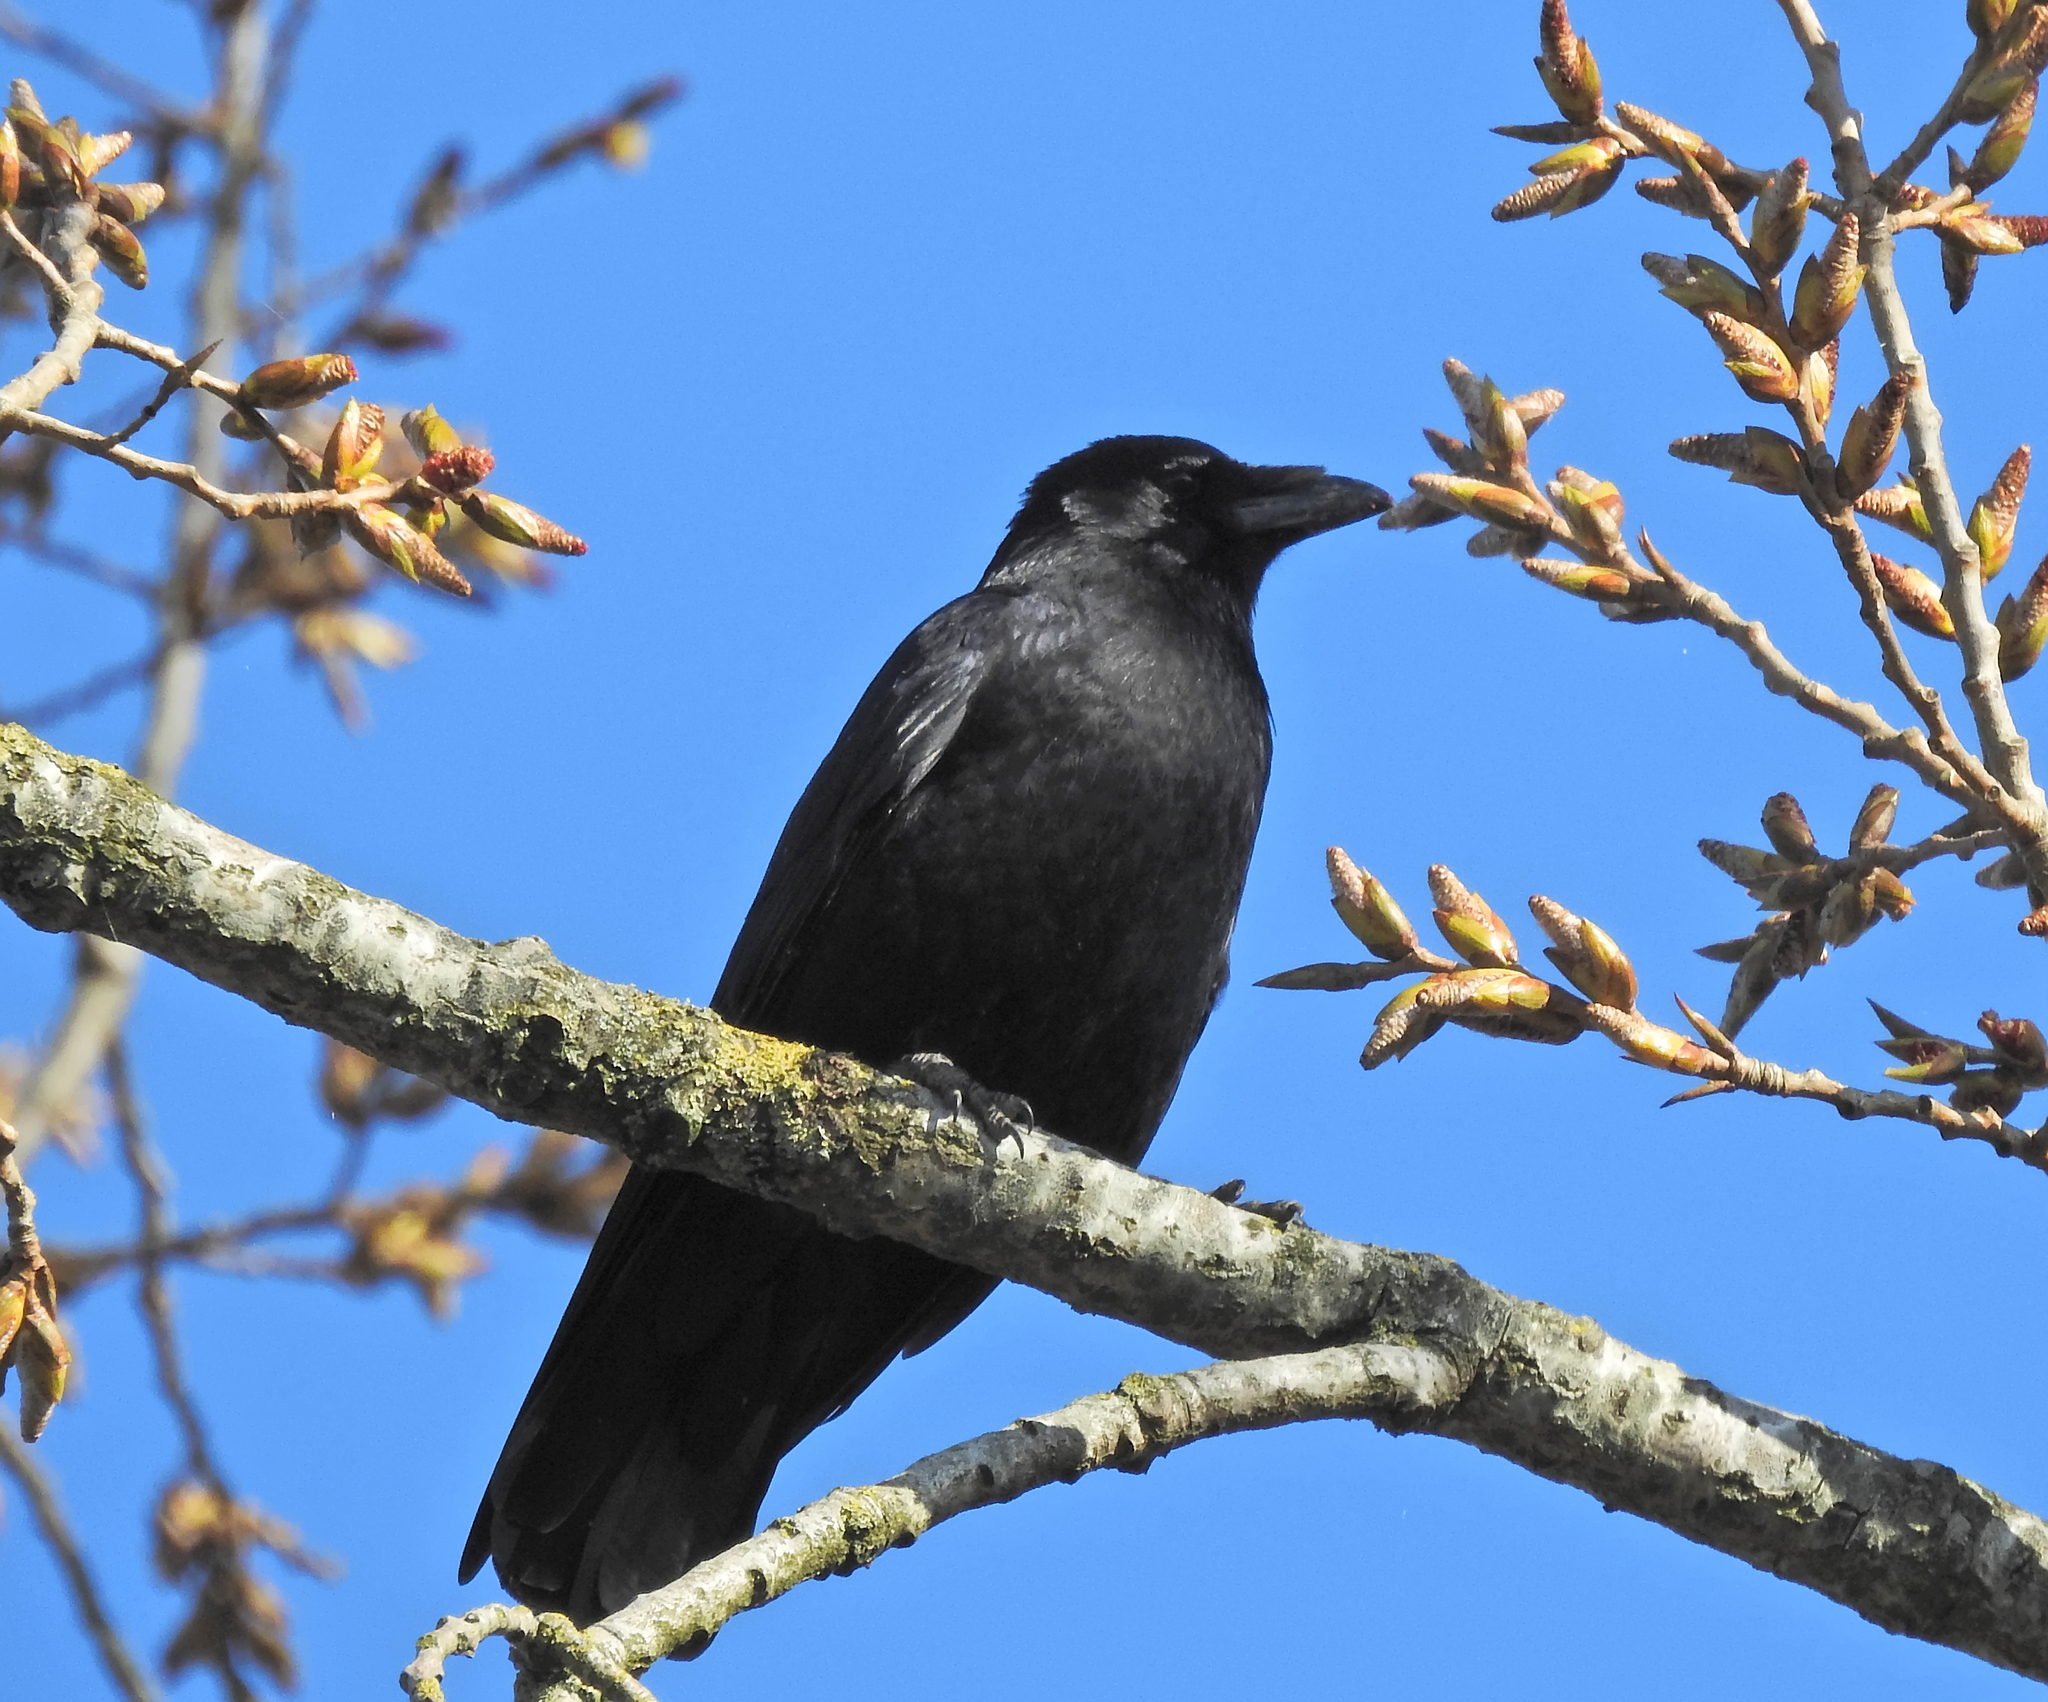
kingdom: Animalia
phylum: Chordata
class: Aves
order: Passeriformes
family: Corvidae
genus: Corvus
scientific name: Corvus corone
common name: Carrion crow
